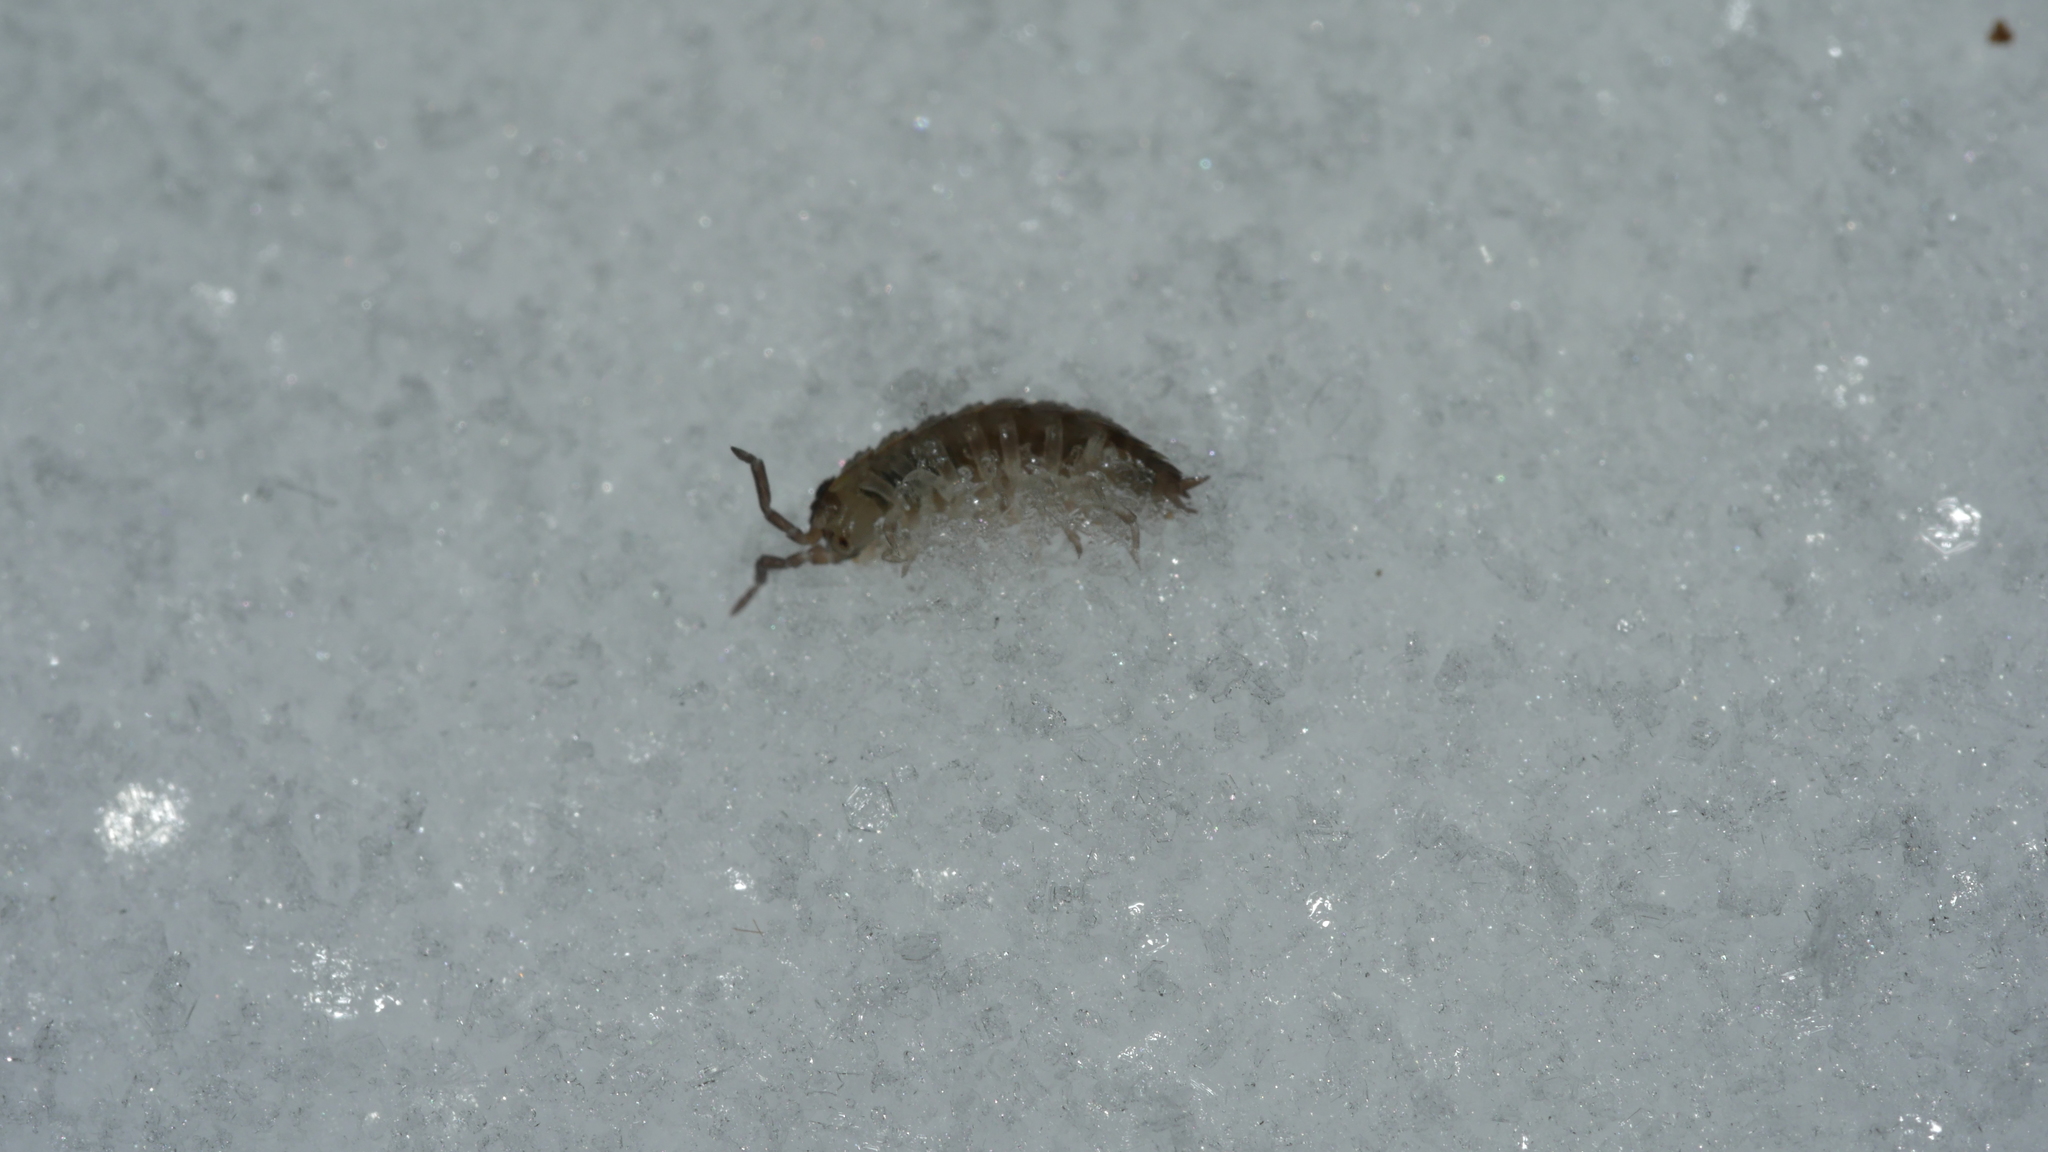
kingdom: Animalia
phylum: Arthropoda
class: Malacostraca
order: Isopoda
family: Porcellionidae
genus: Porcellio
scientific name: Porcellio scaber
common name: Common rough woodlouse
